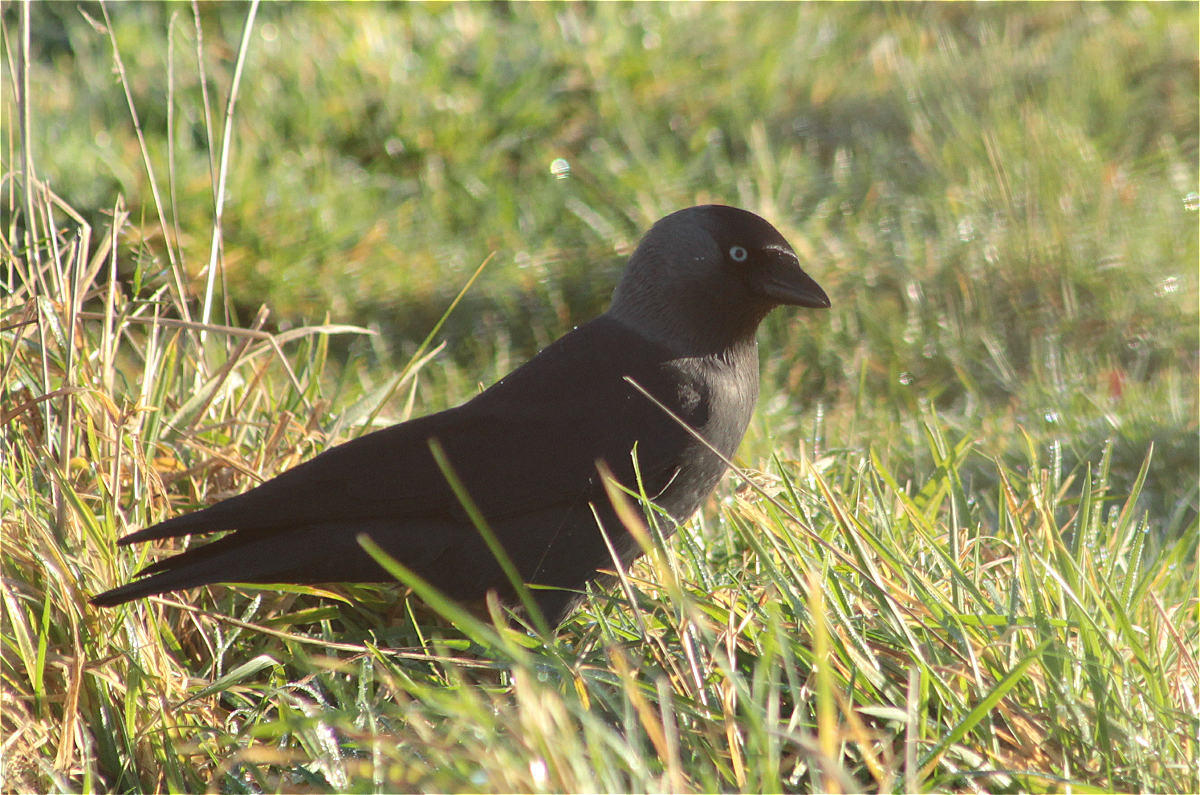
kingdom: Animalia
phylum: Chordata
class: Aves
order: Passeriformes
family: Corvidae
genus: Coloeus
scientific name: Coloeus monedula
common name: Western jackdaw
